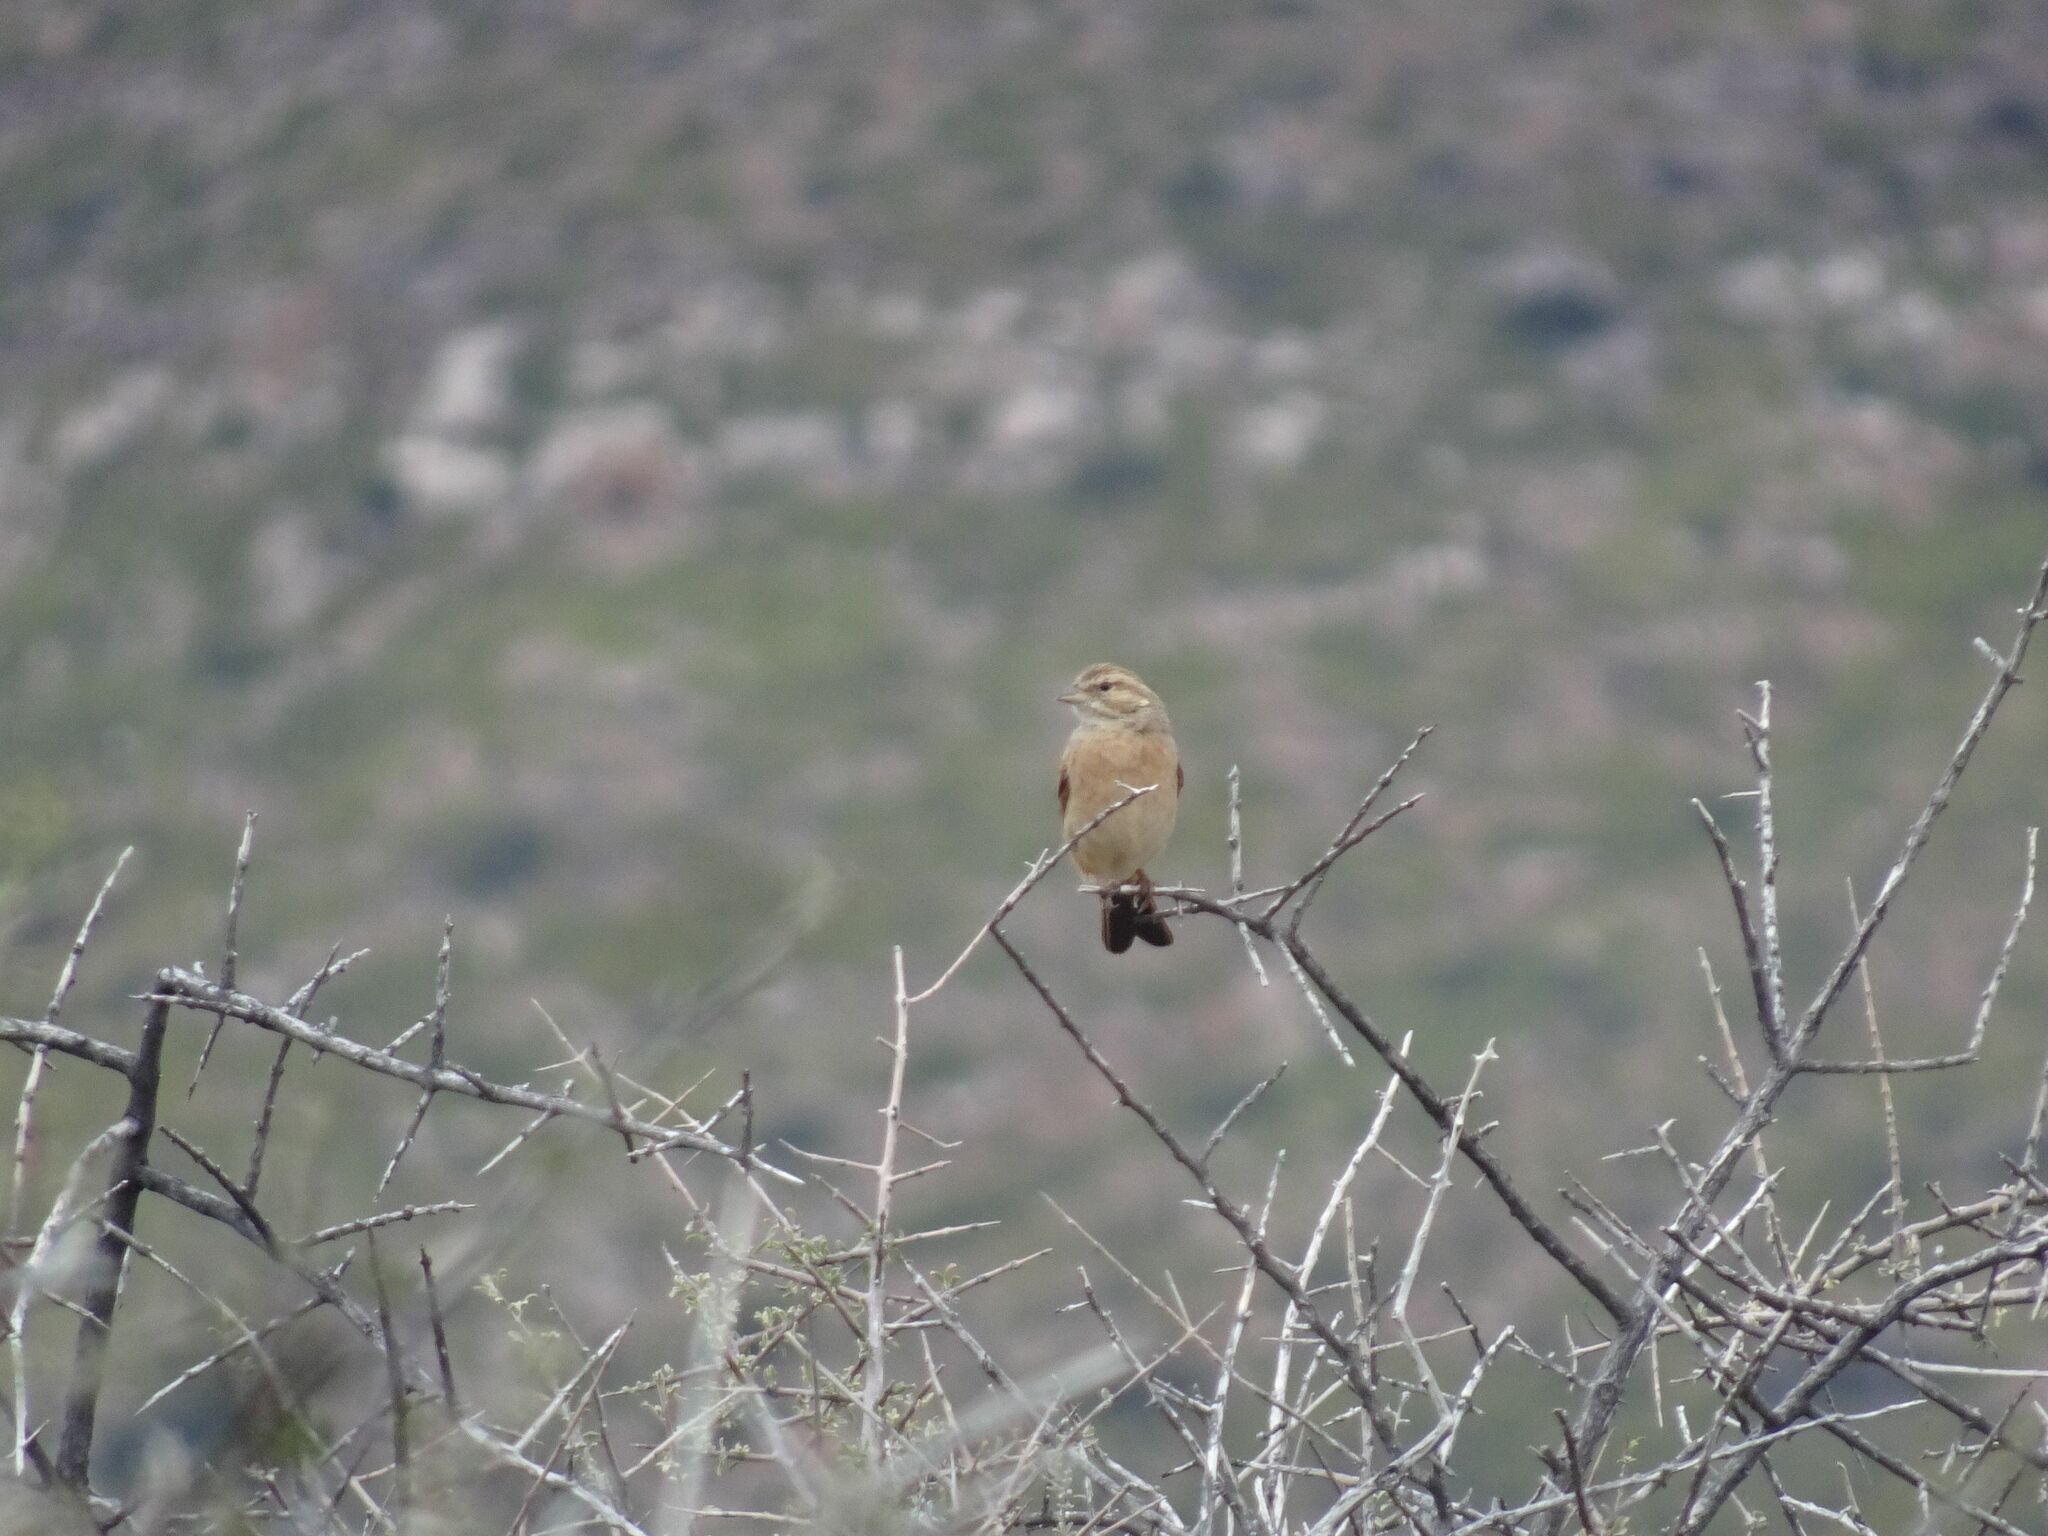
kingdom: Animalia
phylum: Chordata
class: Aves
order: Passeriformes
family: Emberizidae
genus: Emberiza
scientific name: Emberiza impetuani
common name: Lark-like bunting
